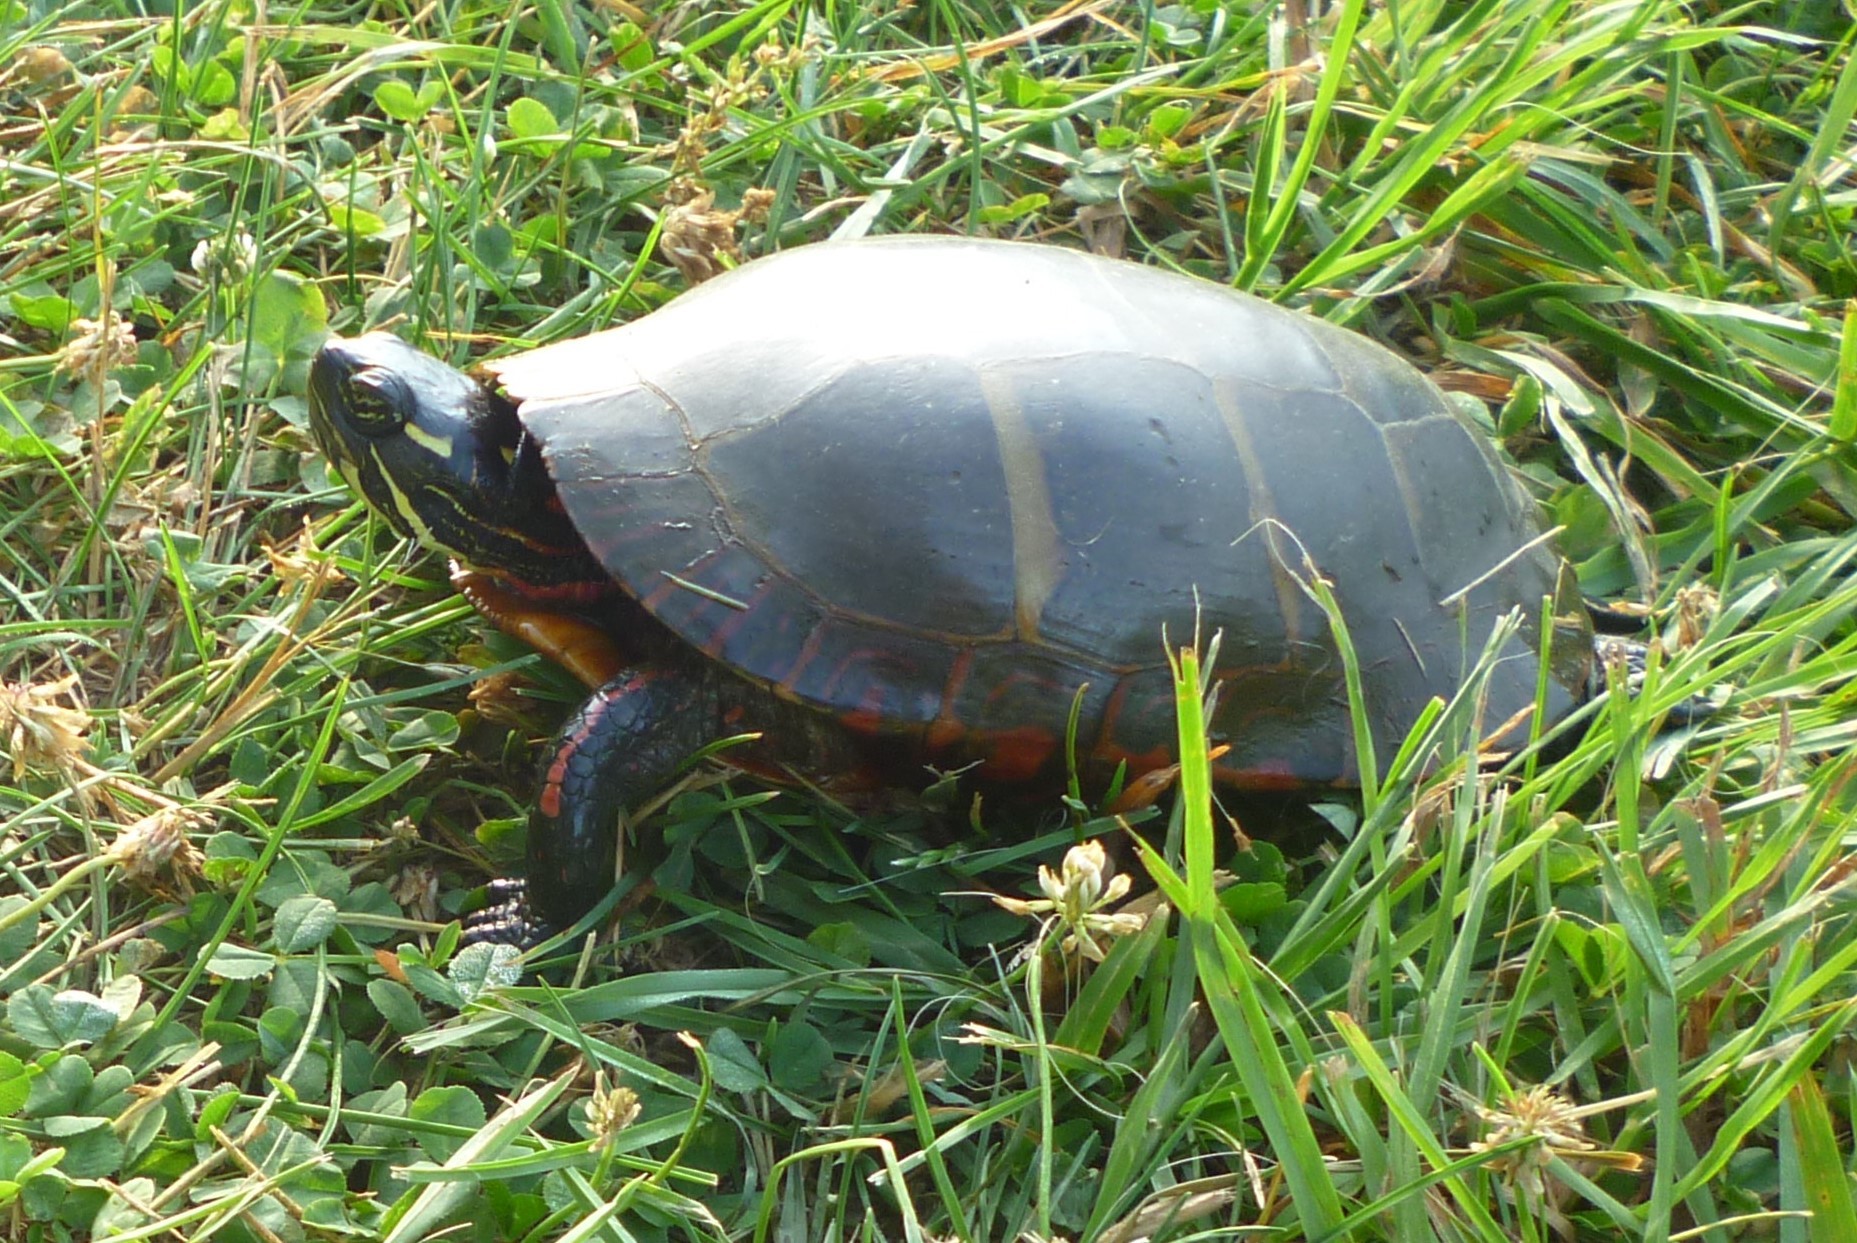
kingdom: Animalia
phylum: Chordata
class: Testudines
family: Emydidae
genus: Chrysemys
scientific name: Chrysemys picta
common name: Painted turtle
